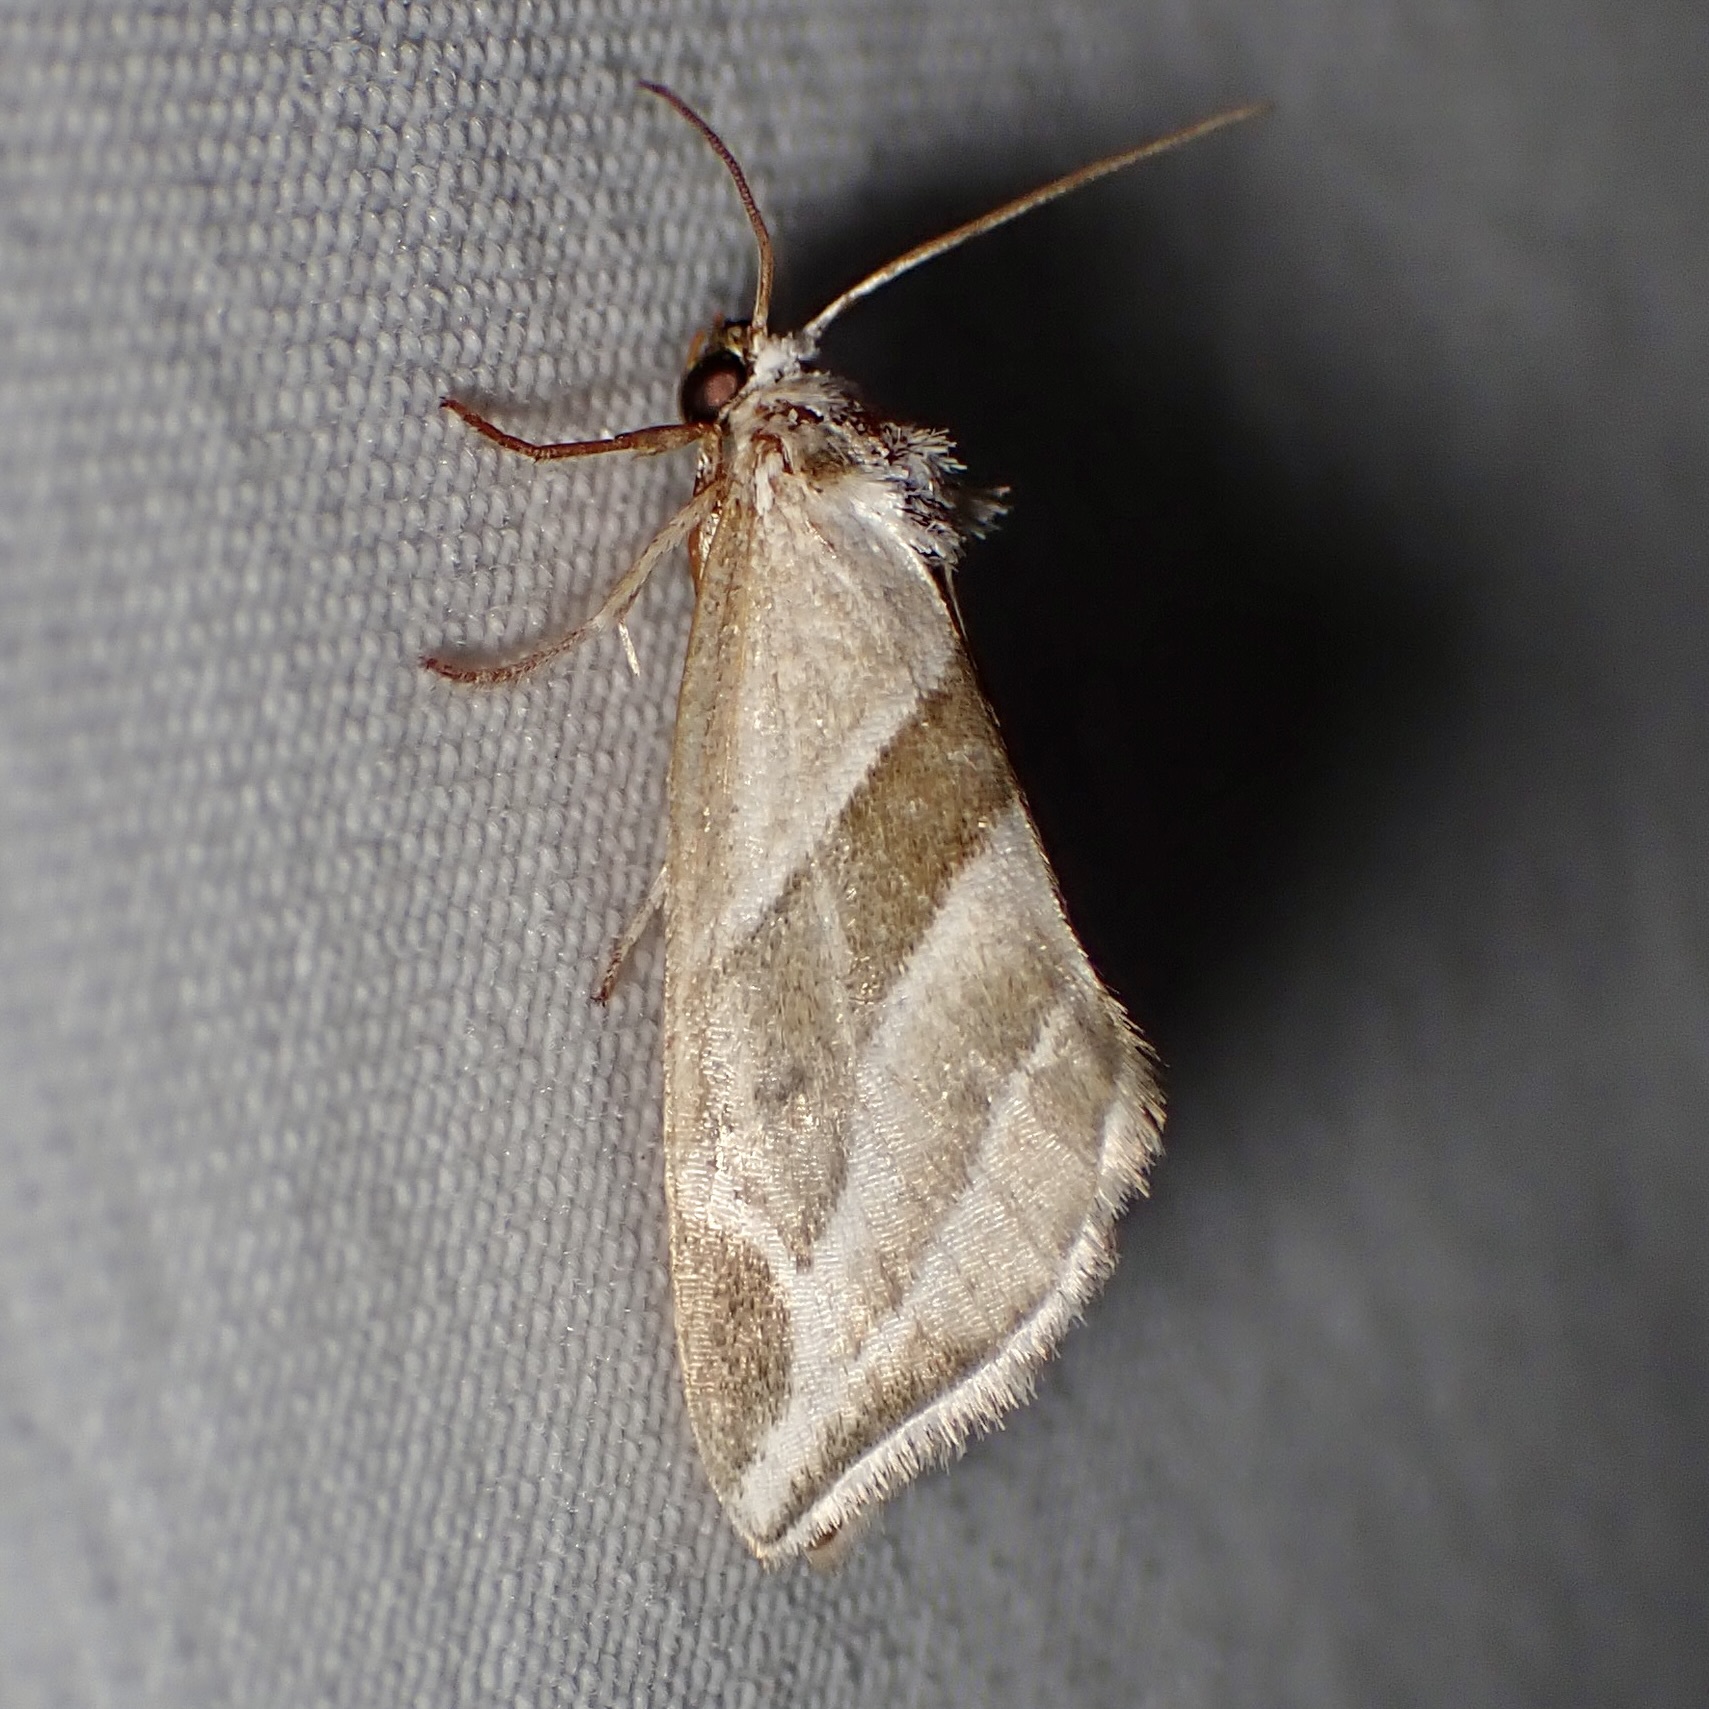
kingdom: Animalia
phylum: Arthropoda
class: Insecta
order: Lepidoptera
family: Noctuidae
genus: Plagiomimicus
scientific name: Plagiomimicus tepperi
